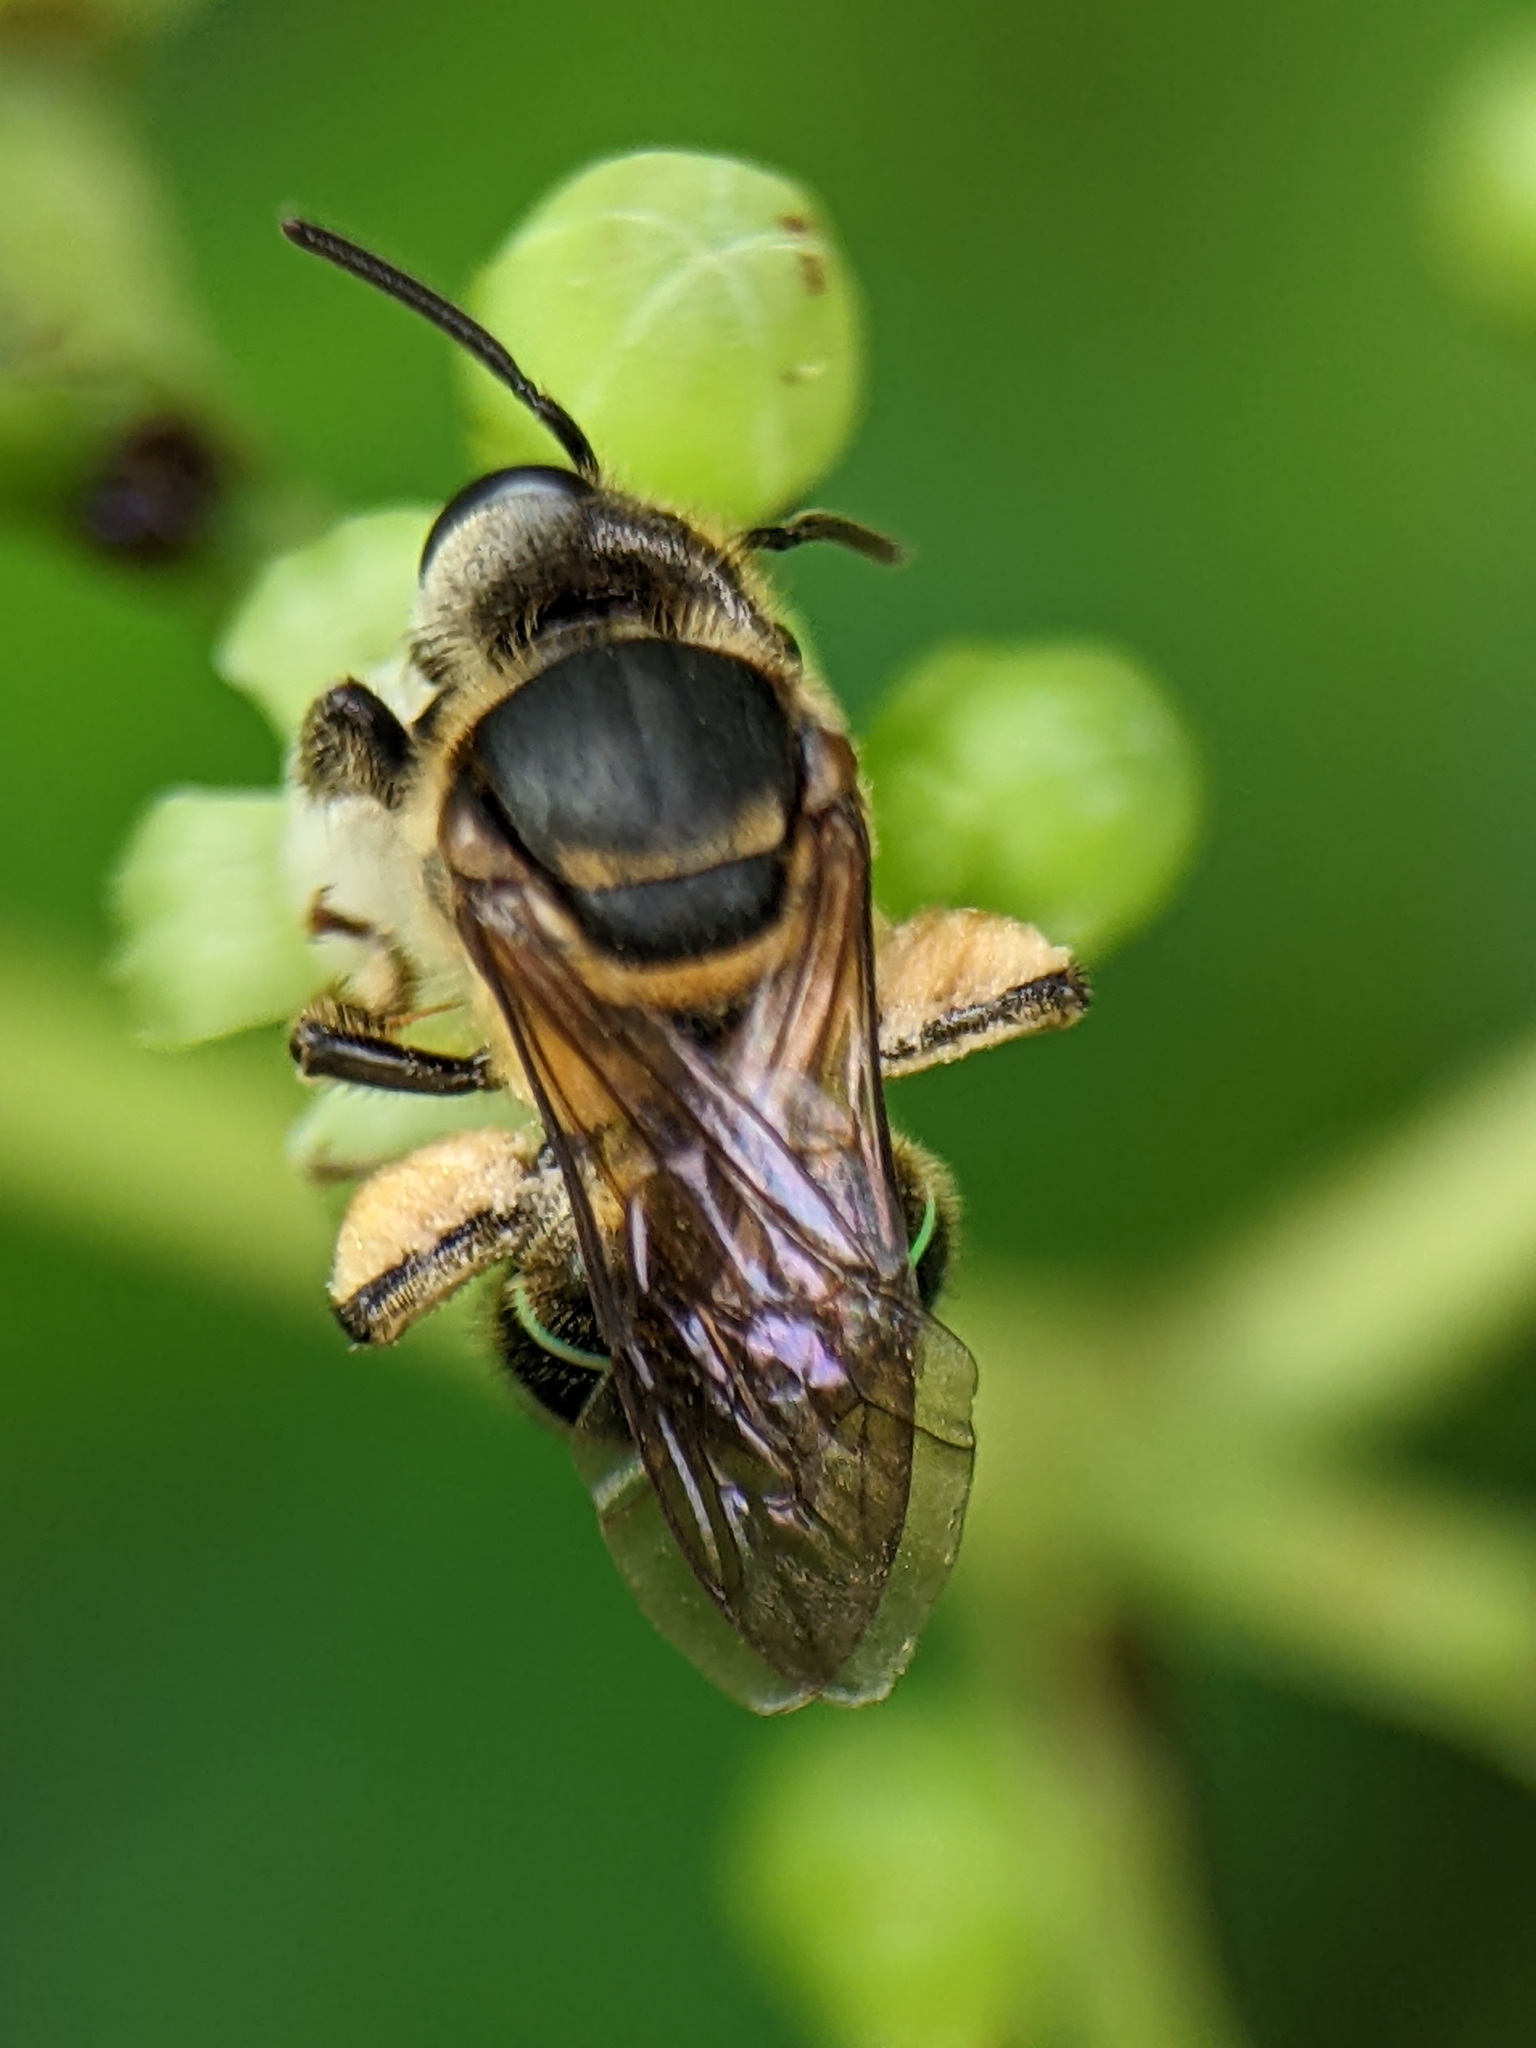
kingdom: Animalia
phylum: Arthropoda
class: Insecta
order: Hymenoptera
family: Halictidae
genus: Nomia
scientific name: Nomia strigata
